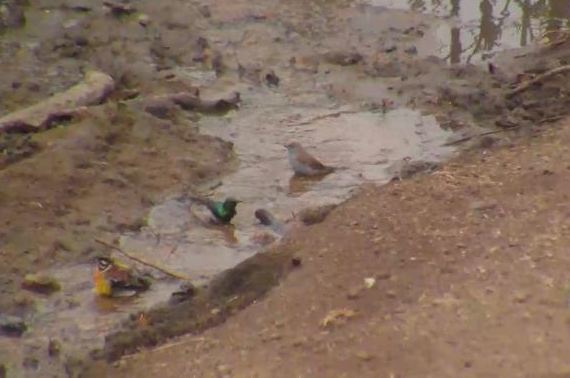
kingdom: Animalia
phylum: Chordata
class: Aves
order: Passeriformes
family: Emberizidae
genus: Emberiza
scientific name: Emberiza flaviventris
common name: Golden-breasted bunting
